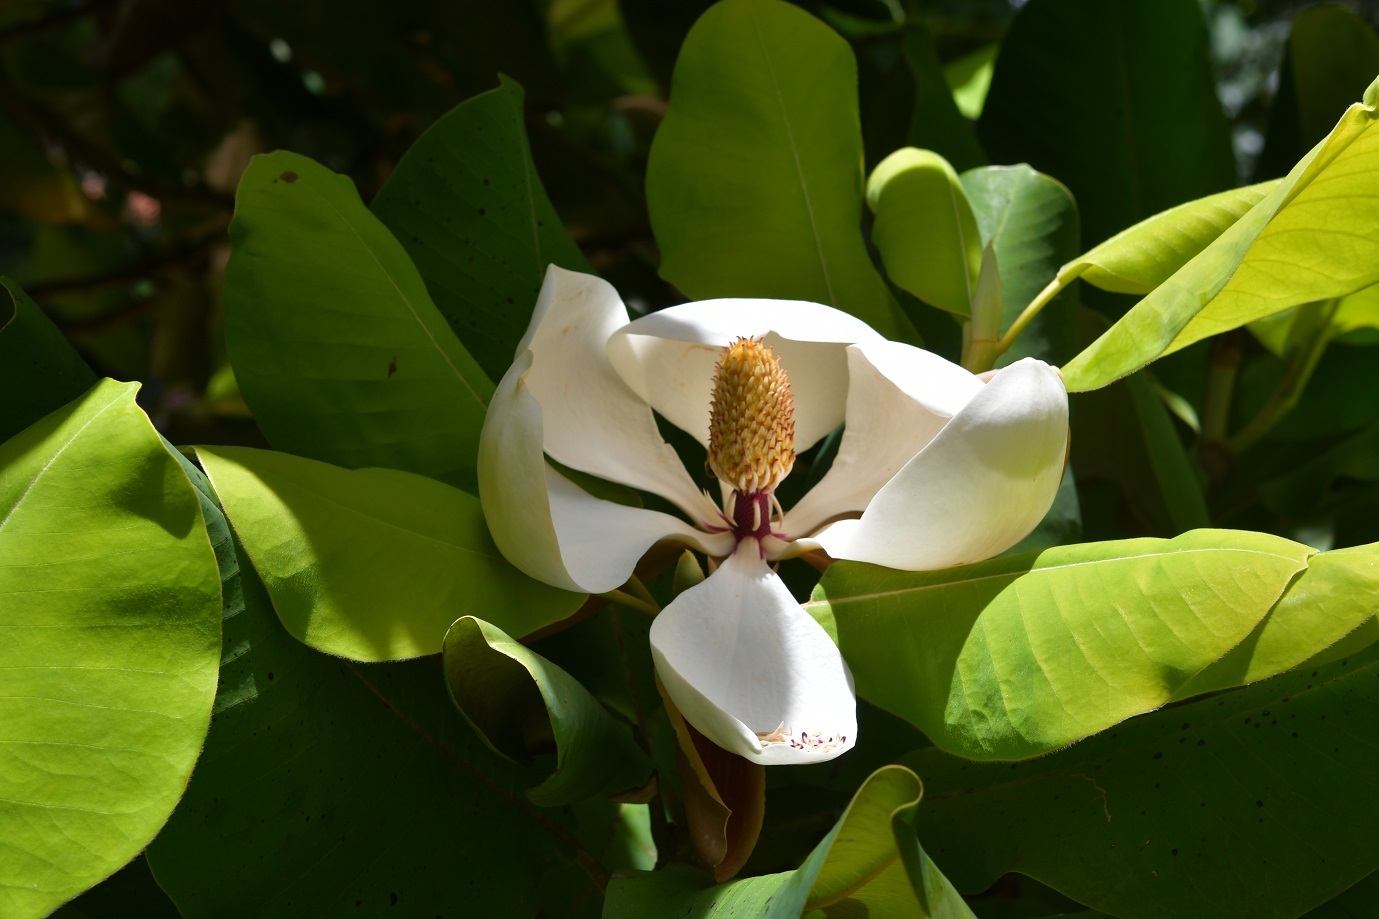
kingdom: Plantae
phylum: Tracheophyta
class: Magnoliopsida
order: Magnoliales
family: Magnoliaceae
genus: Magnolia
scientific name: Magnolia sharpii
